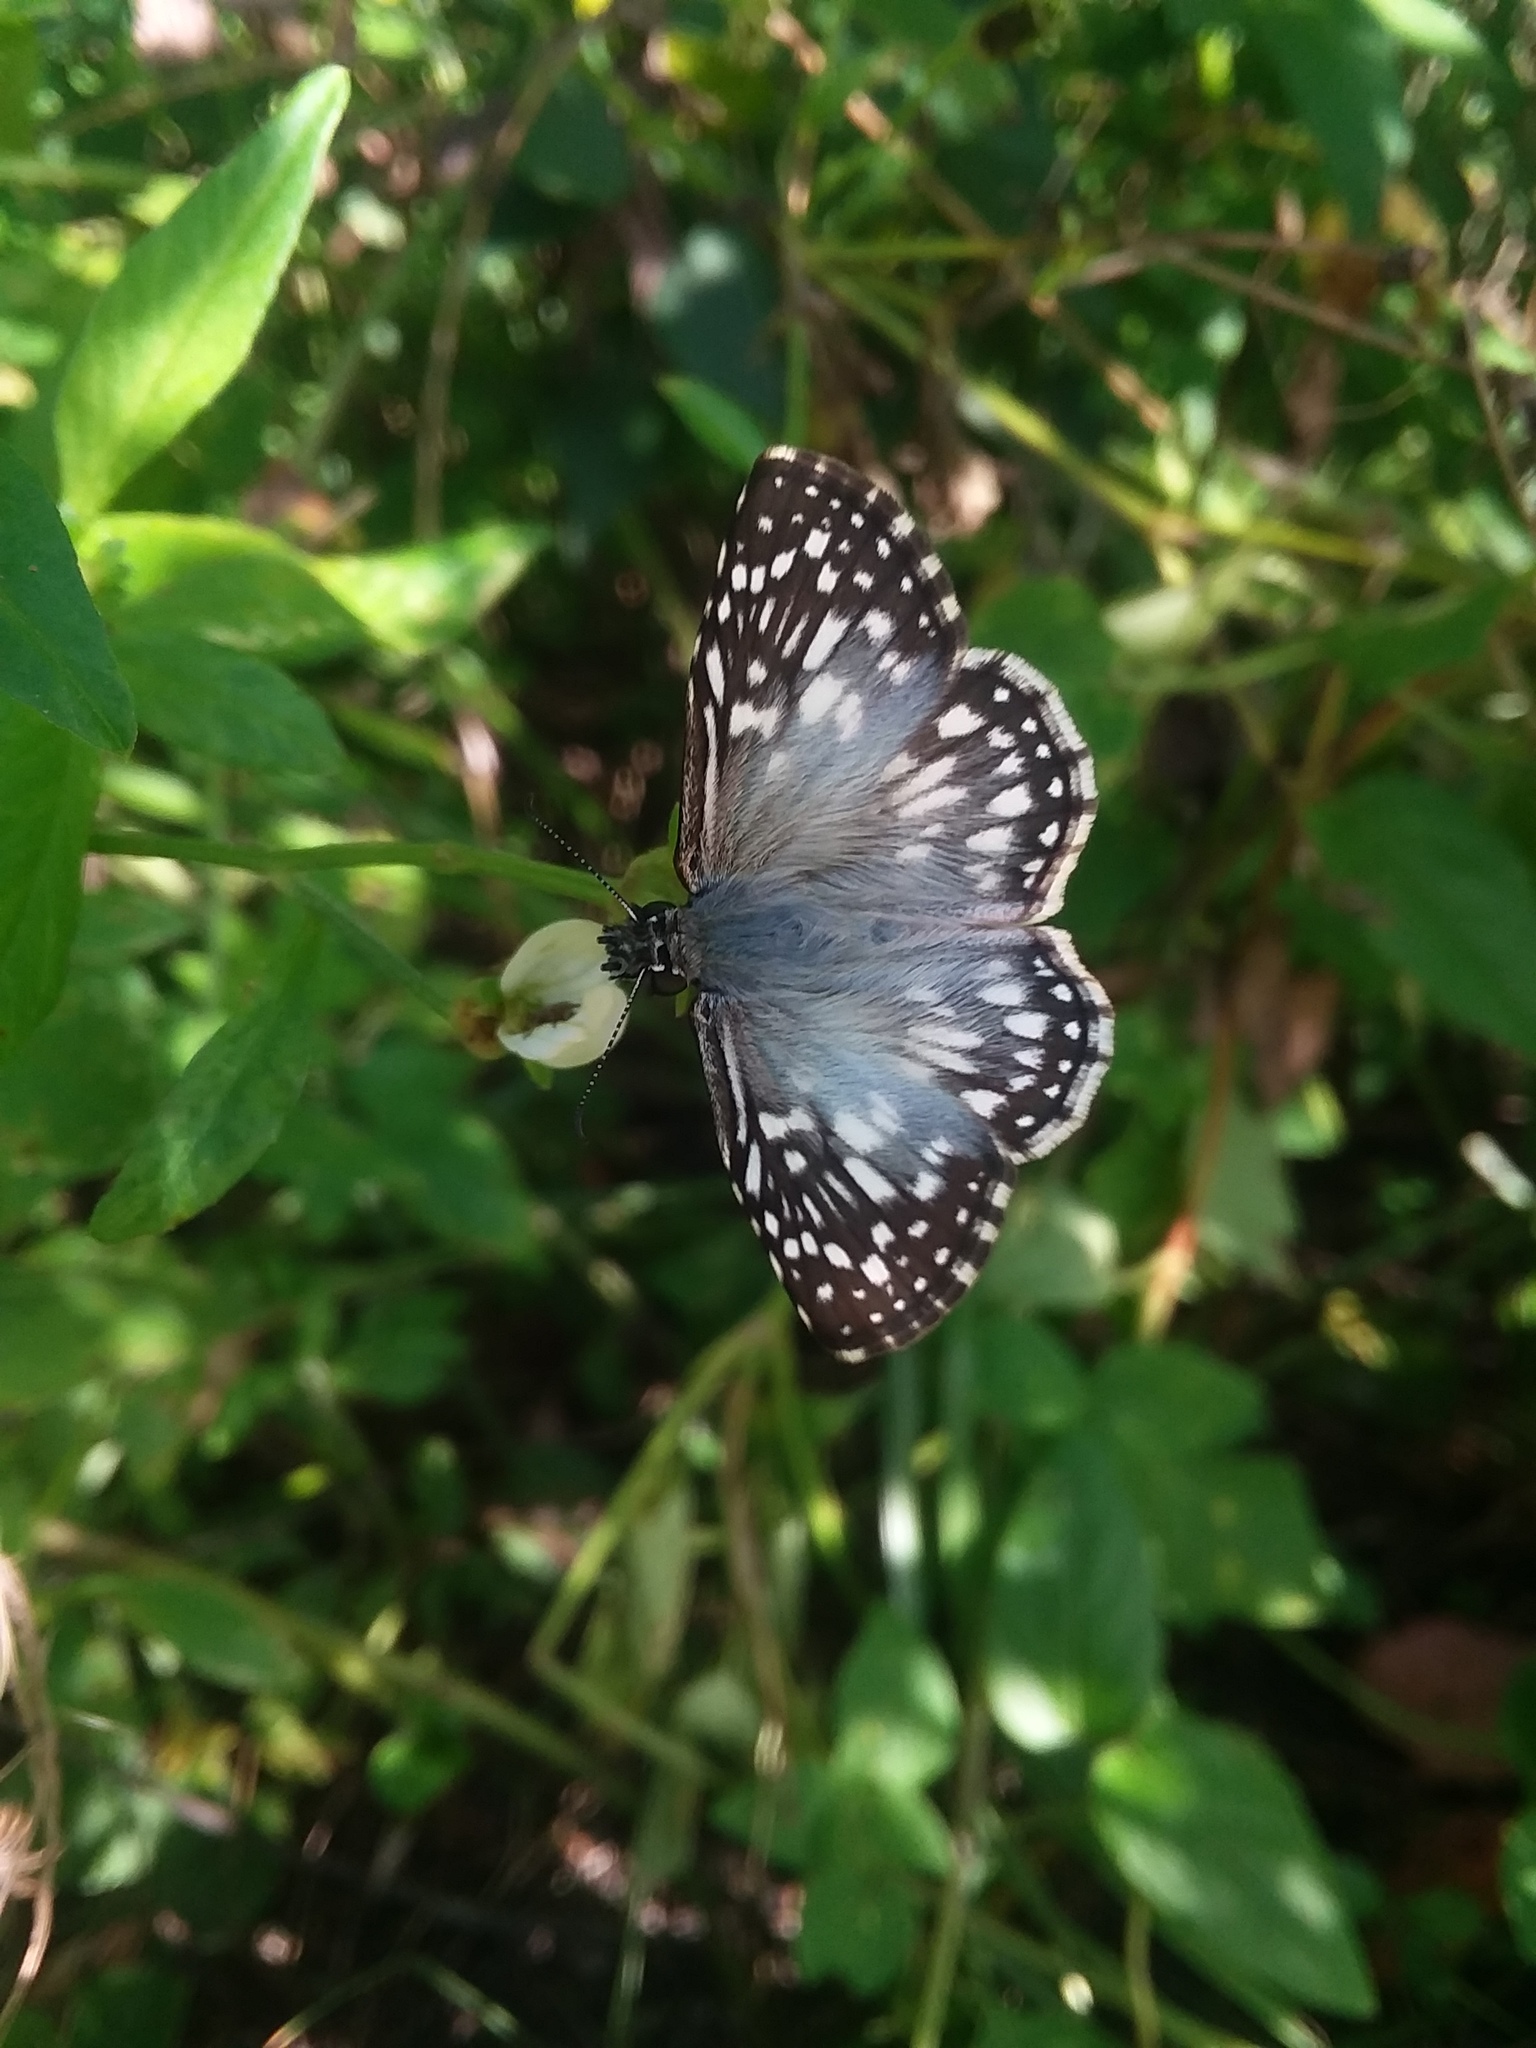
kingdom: Animalia
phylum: Arthropoda
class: Insecta
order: Lepidoptera
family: Hesperiidae
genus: Pyrgus
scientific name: Pyrgus oileus
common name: Tropical checkered-skipper
